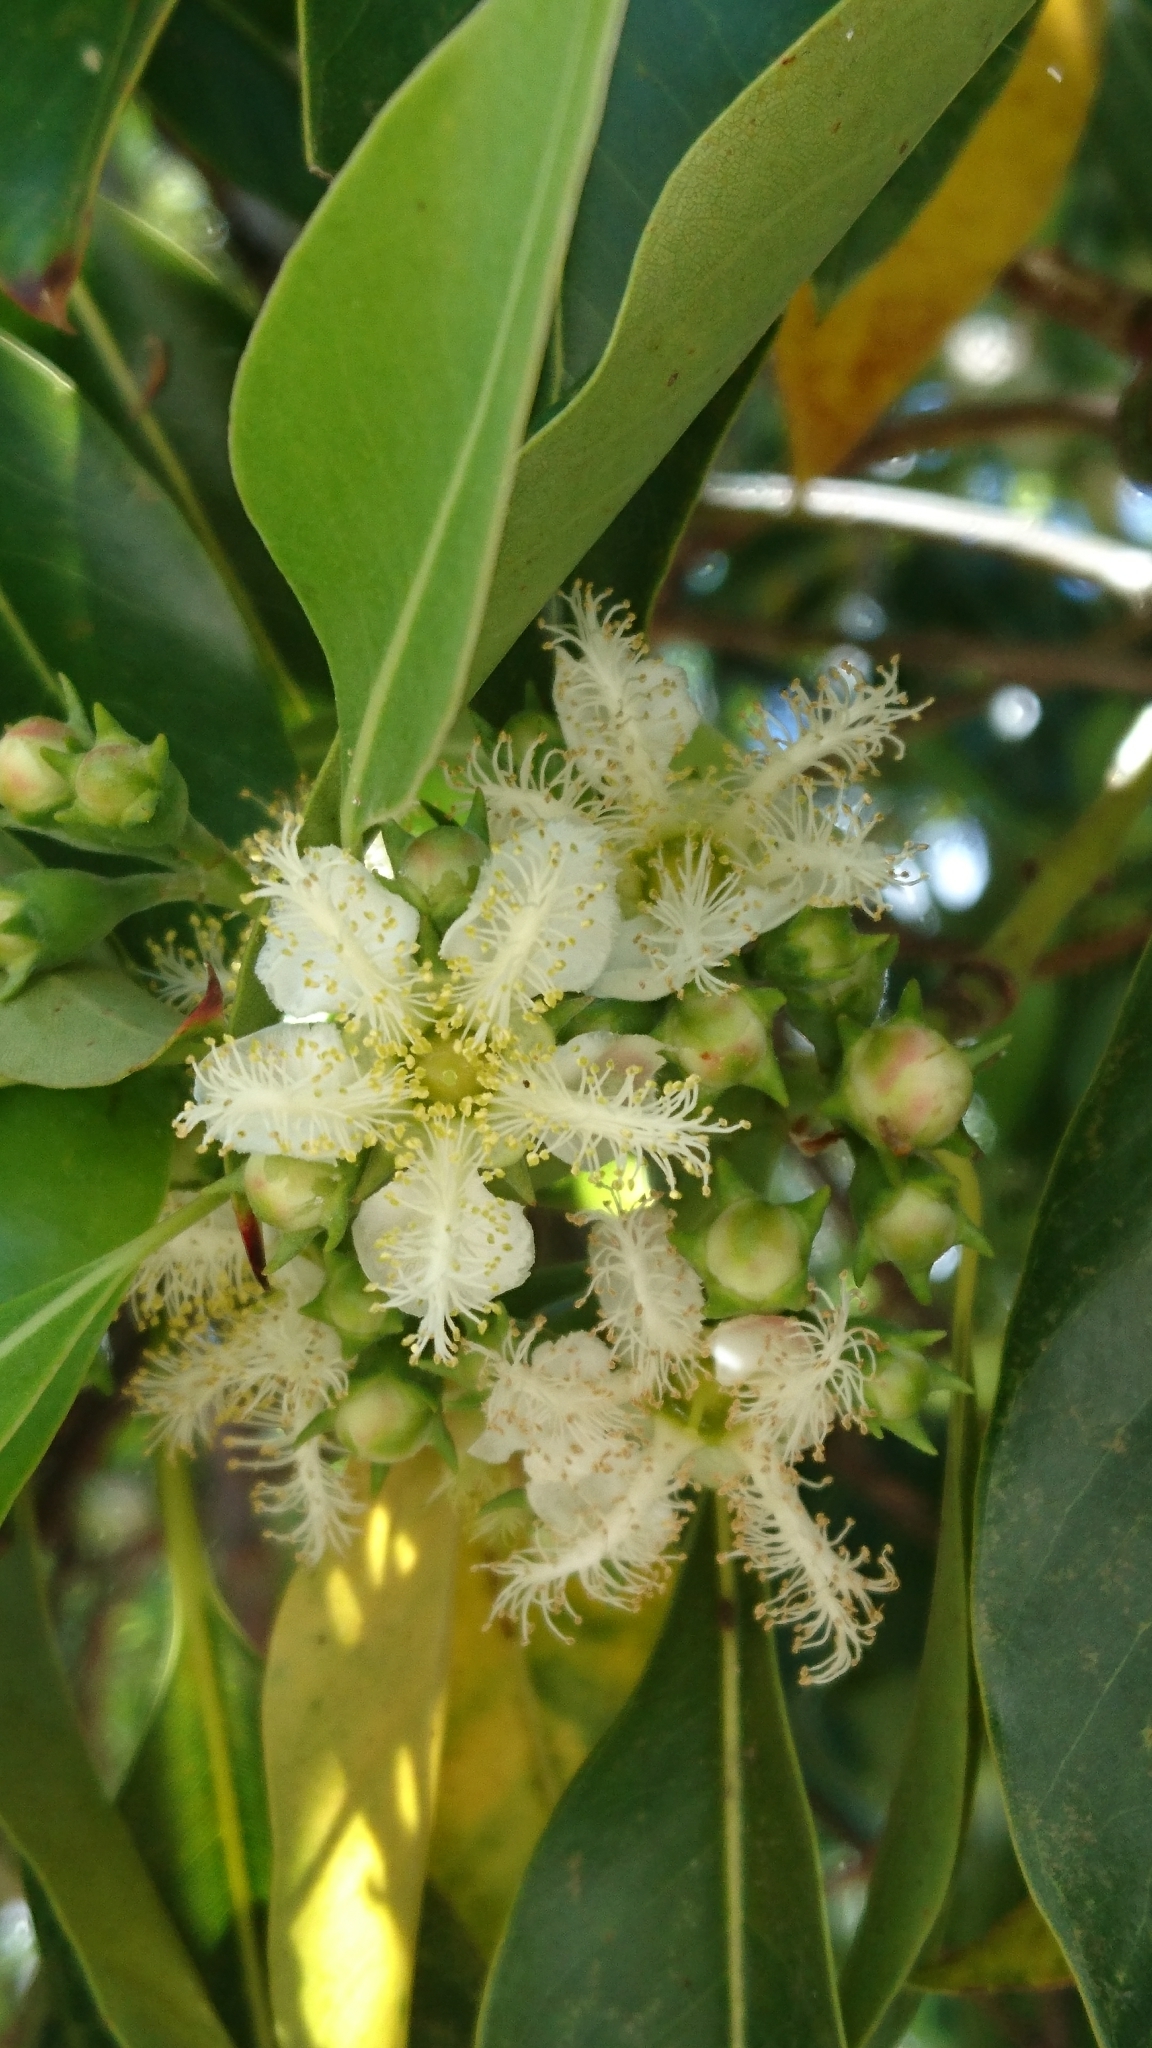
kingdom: Plantae
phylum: Tracheophyta
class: Magnoliopsida
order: Myrtales
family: Myrtaceae
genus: Lophostemon
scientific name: Lophostemon confertus
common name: Brisbane box
